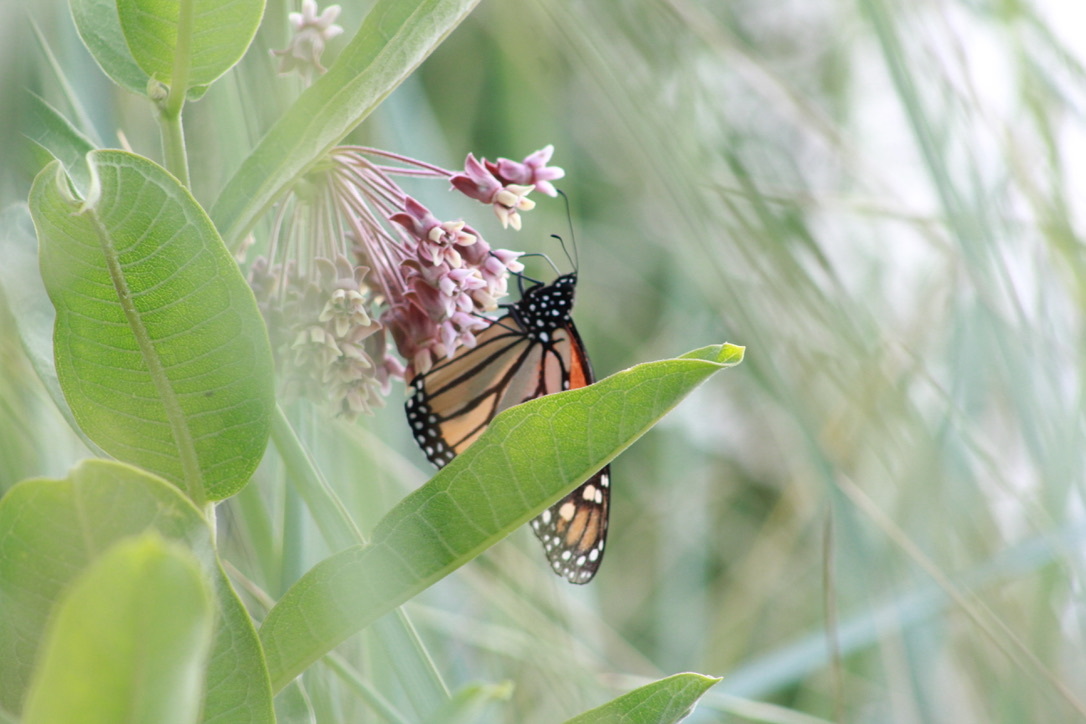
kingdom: Animalia
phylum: Arthropoda
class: Insecta
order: Lepidoptera
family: Nymphalidae
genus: Danaus
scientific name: Danaus plexippus
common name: Monarch
